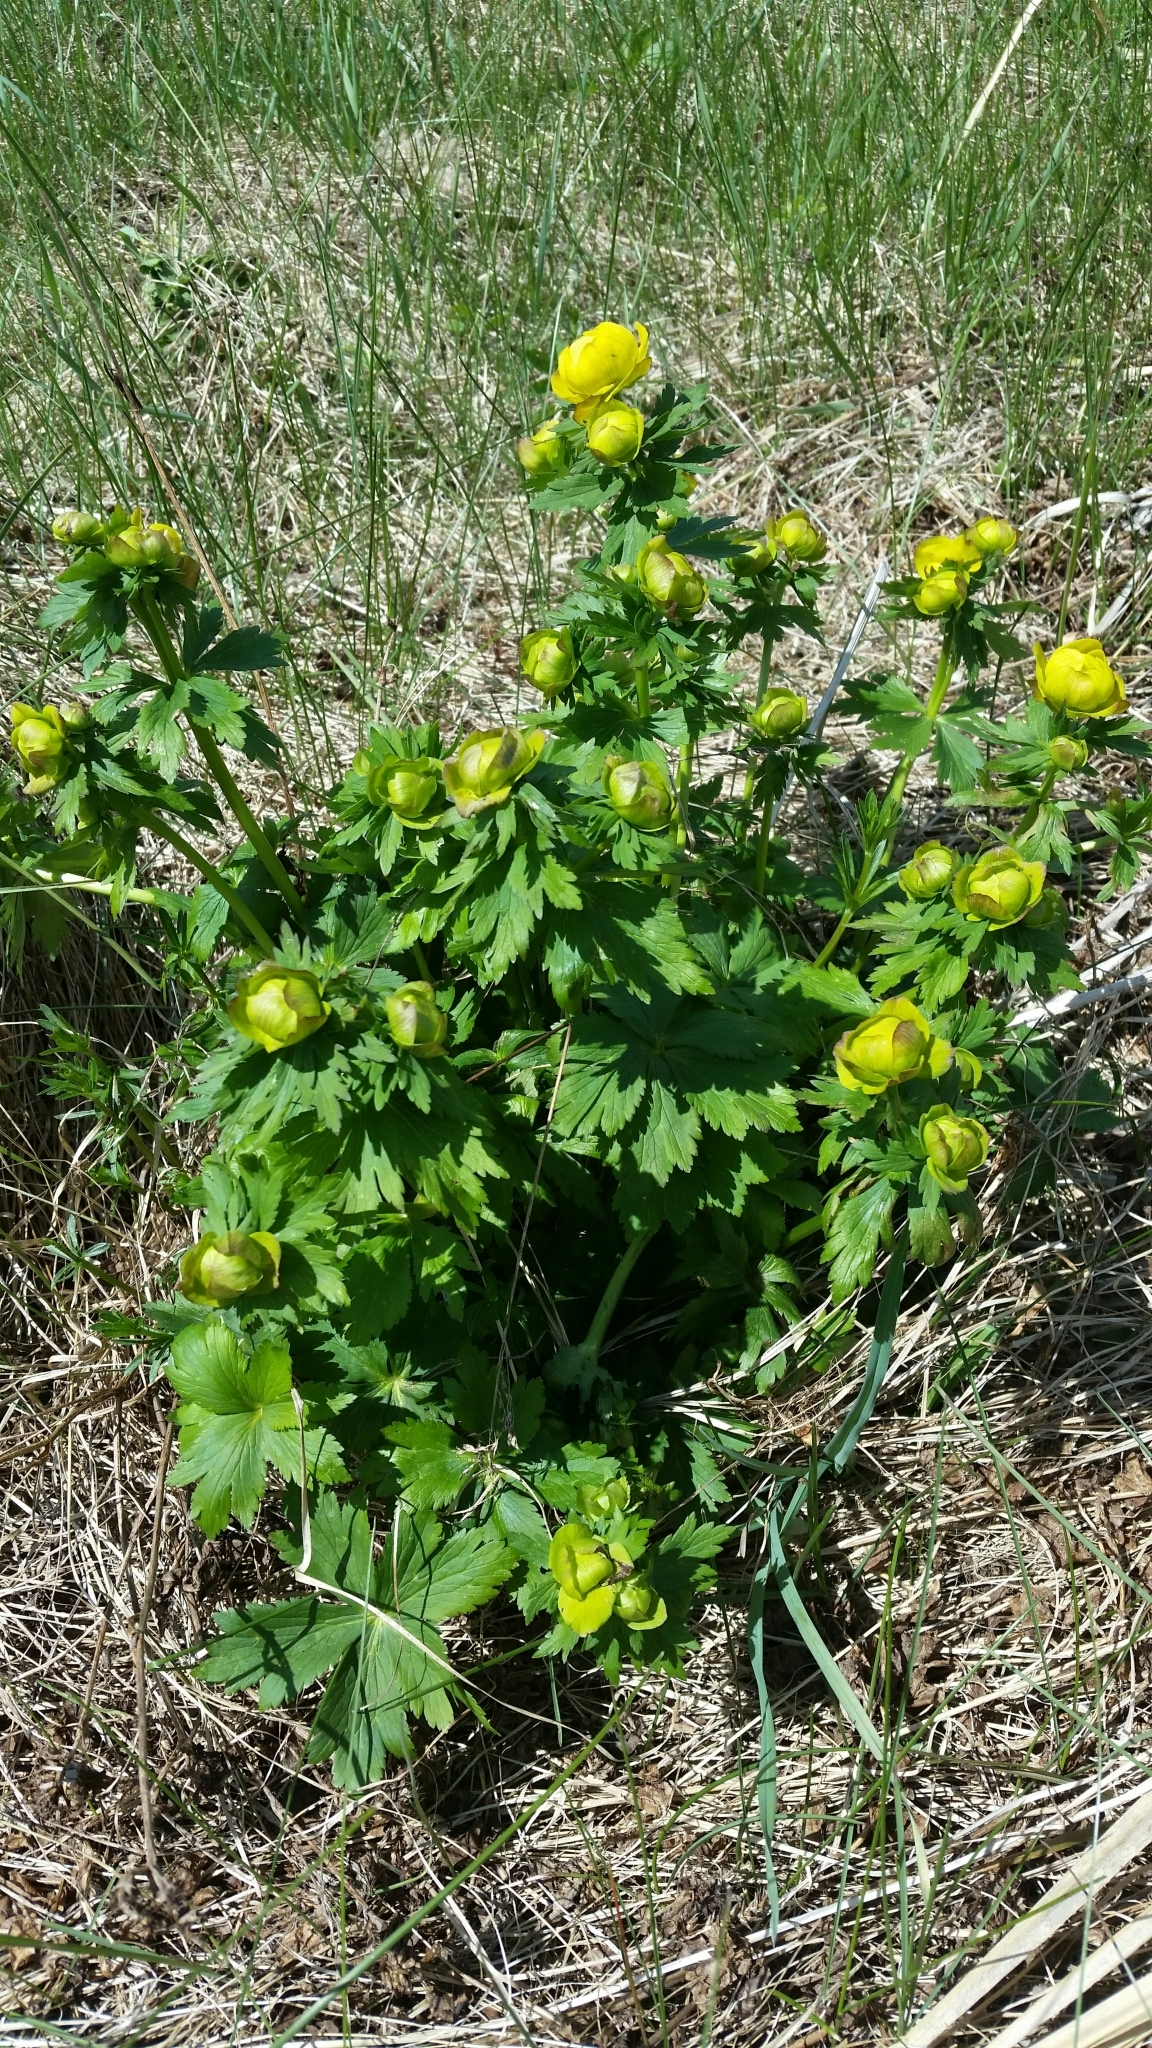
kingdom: Plantae
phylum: Tracheophyta
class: Magnoliopsida
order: Ranunculales
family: Ranunculaceae
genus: Trollius
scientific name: Trollius europaeus
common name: European globeflower
